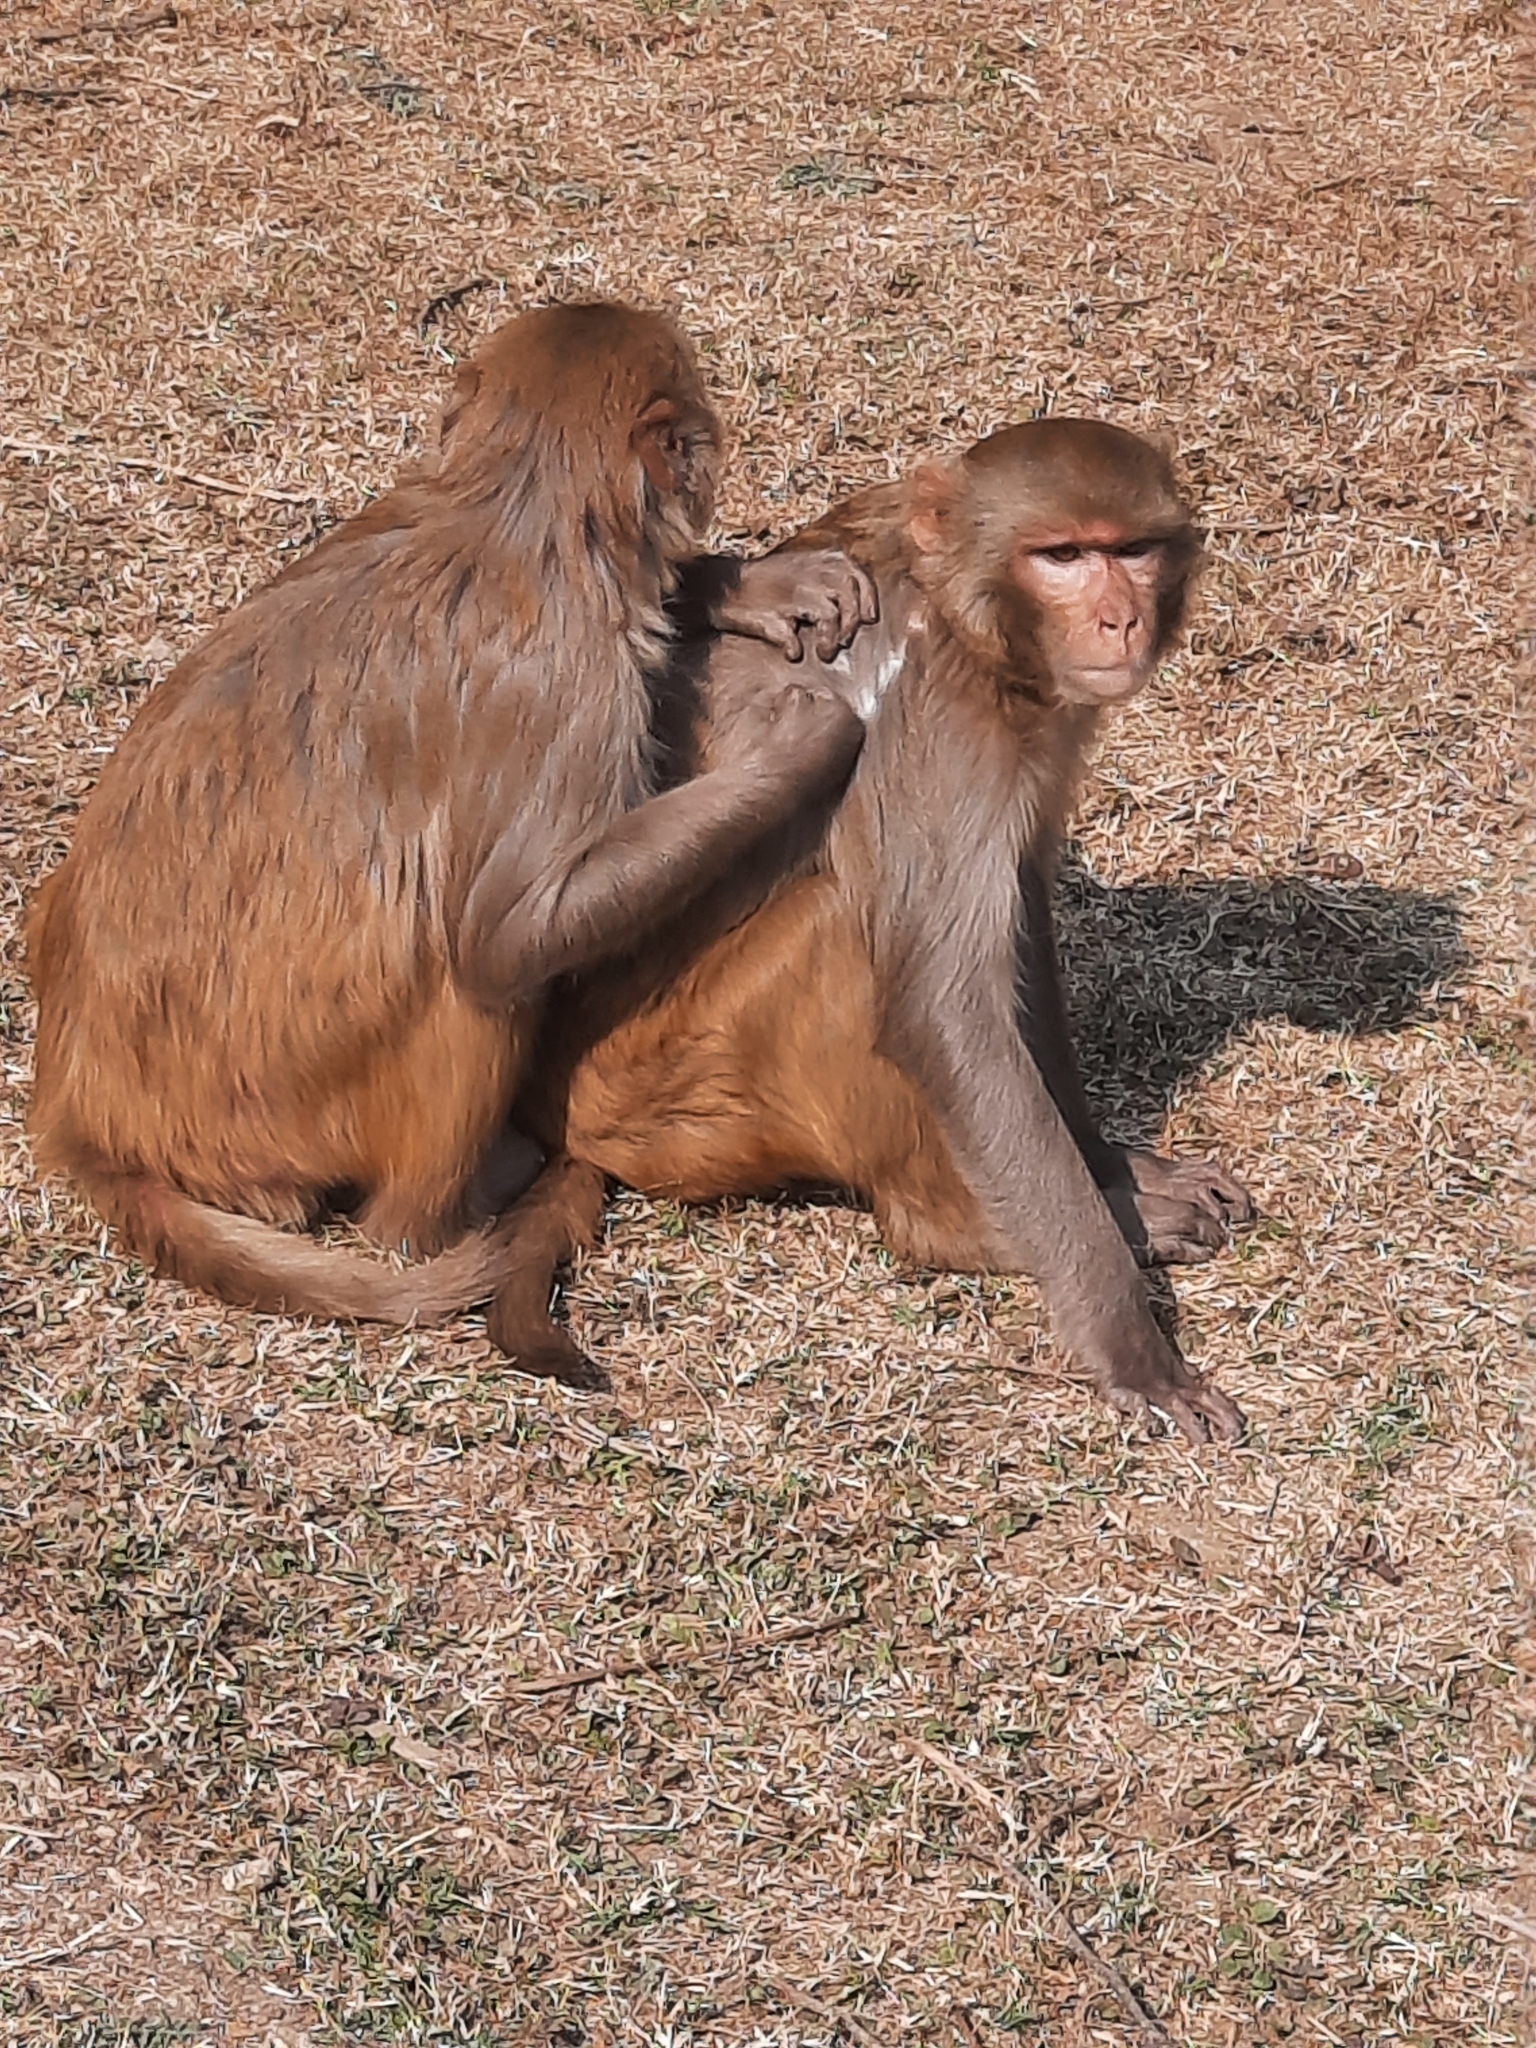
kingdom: Animalia
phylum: Chordata
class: Mammalia
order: Primates
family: Cercopithecidae
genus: Macaca
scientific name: Macaca mulatta
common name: Rhesus monkey
